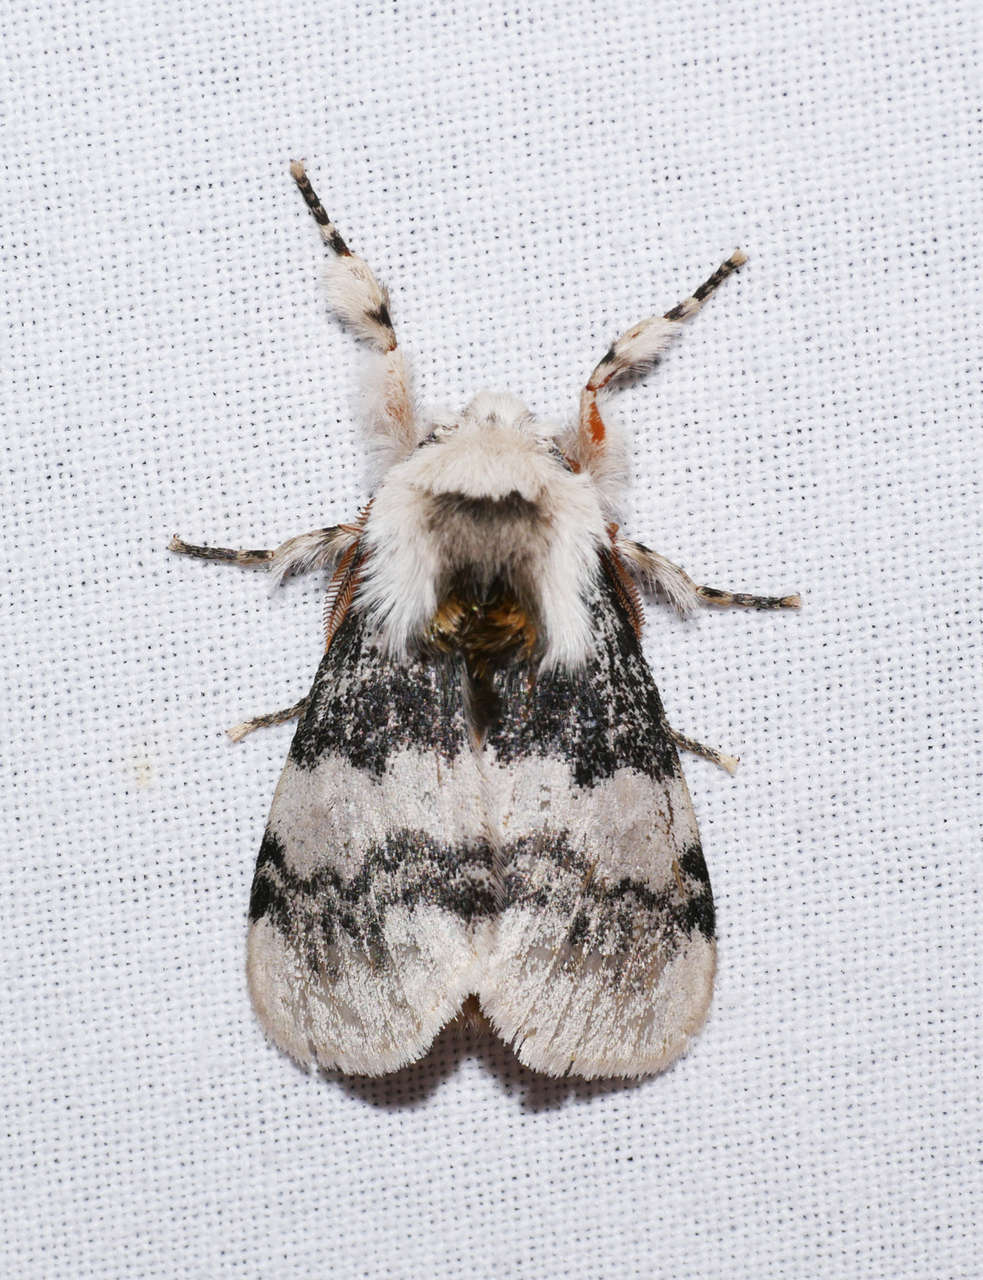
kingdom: Animalia
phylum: Arthropoda
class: Insecta
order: Lepidoptera
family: Erebidae
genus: Iropoca
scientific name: Iropoca rotundata
